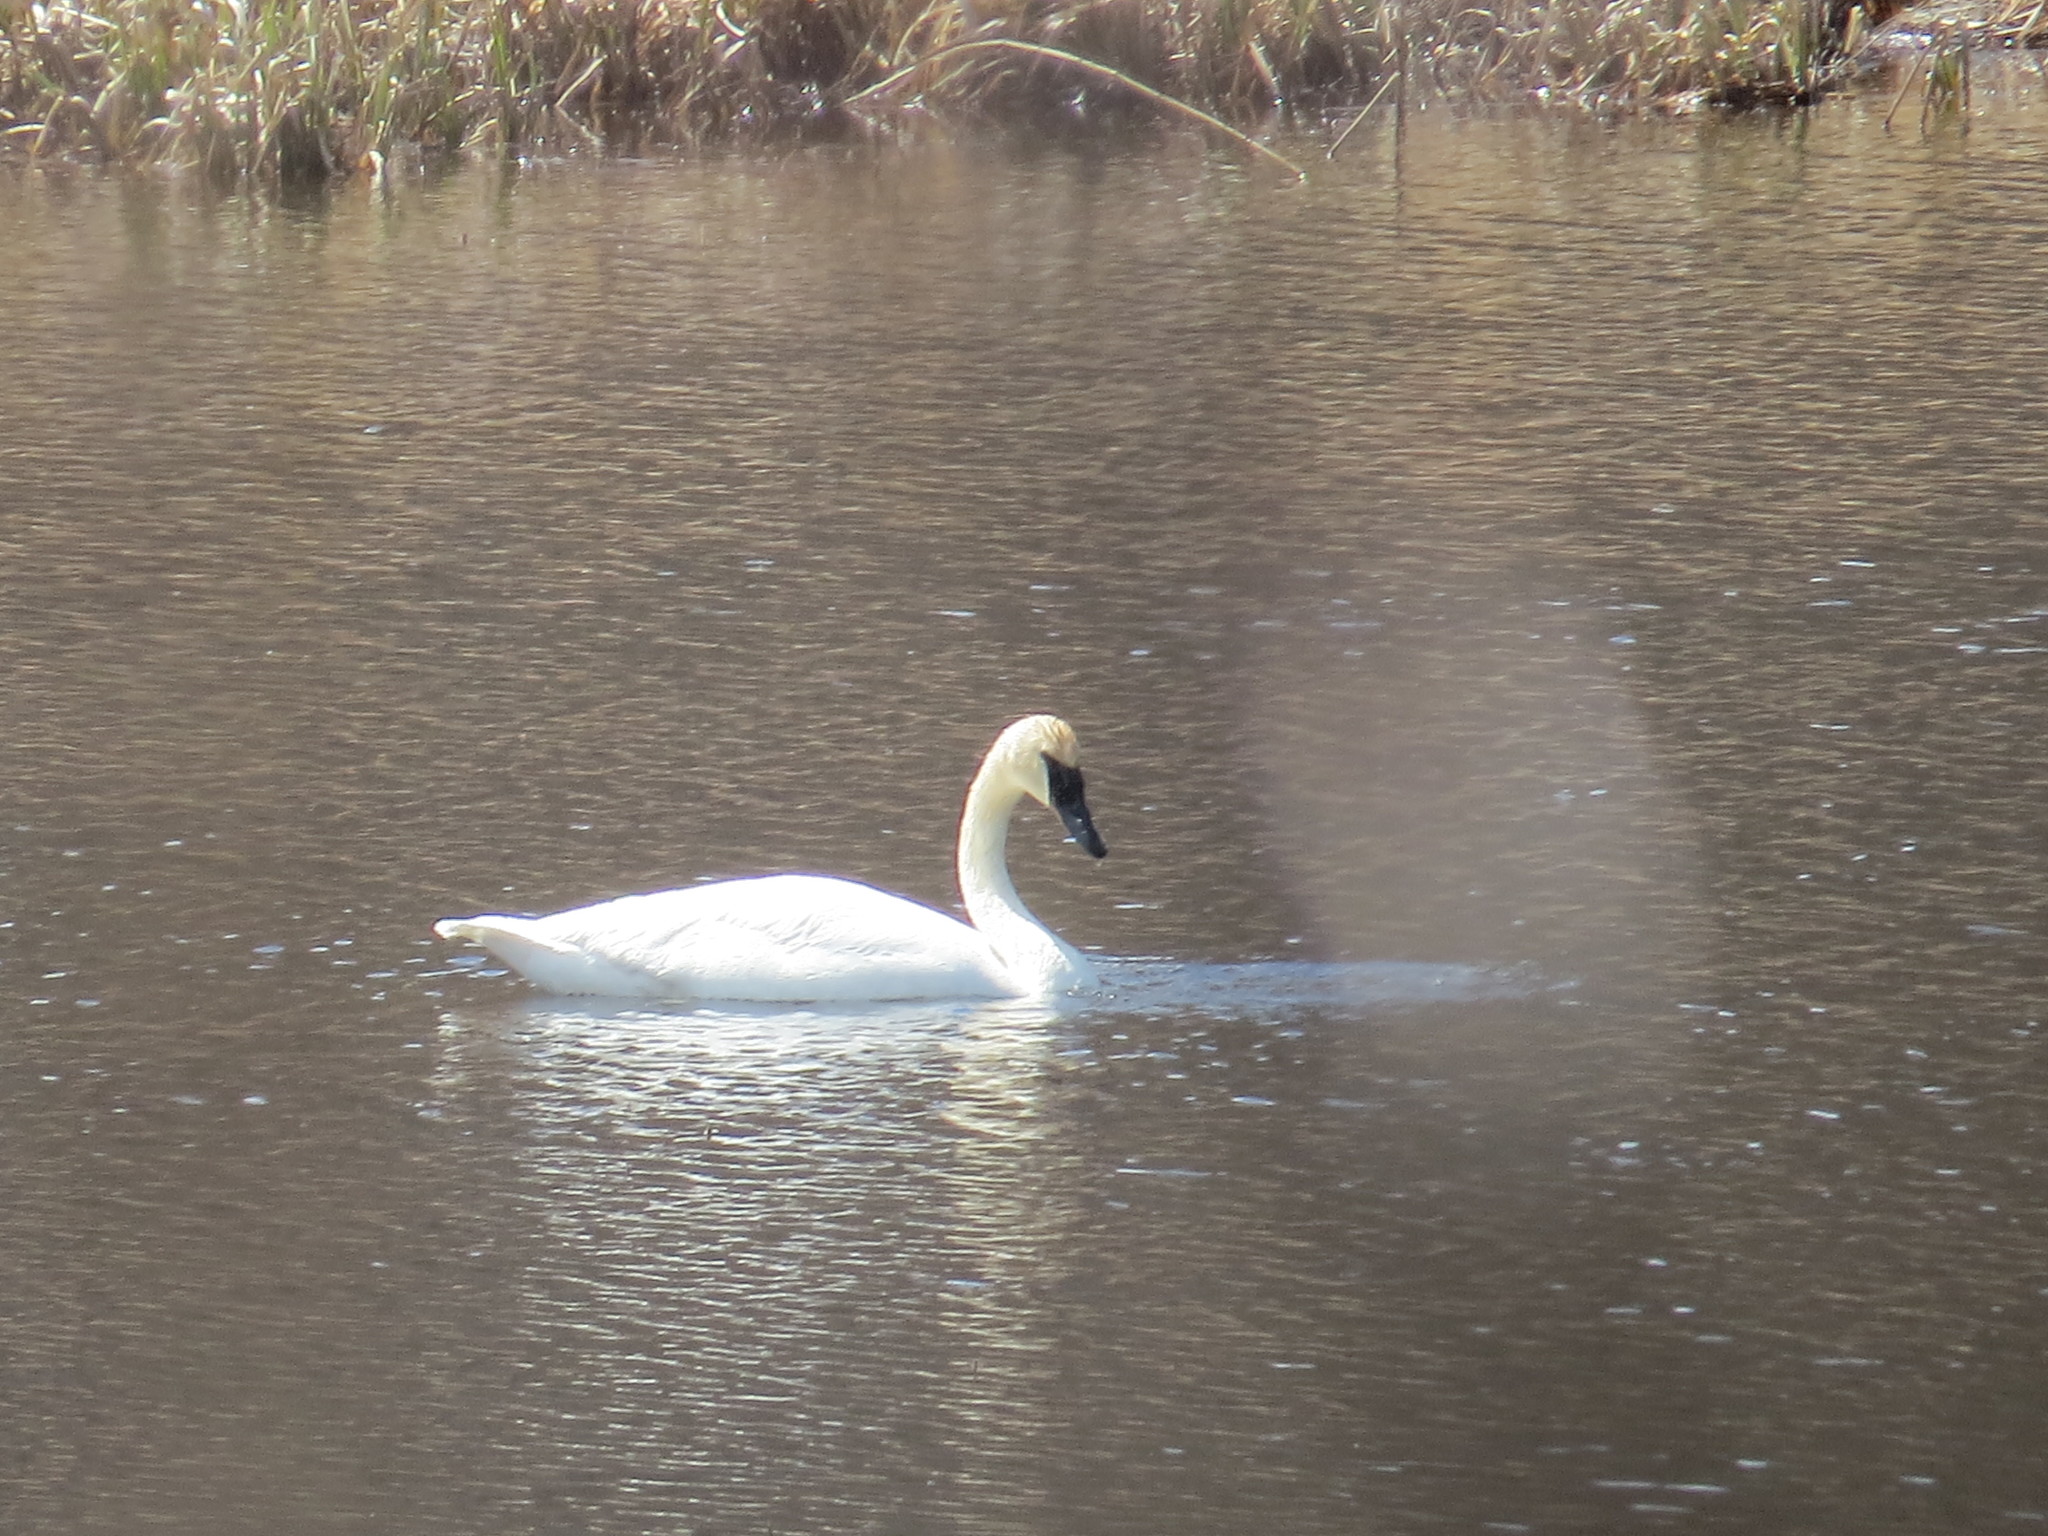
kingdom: Animalia
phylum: Chordata
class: Aves
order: Anseriformes
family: Anatidae
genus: Cygnus
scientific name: Cygnus buccinator
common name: Trumpeter swan
